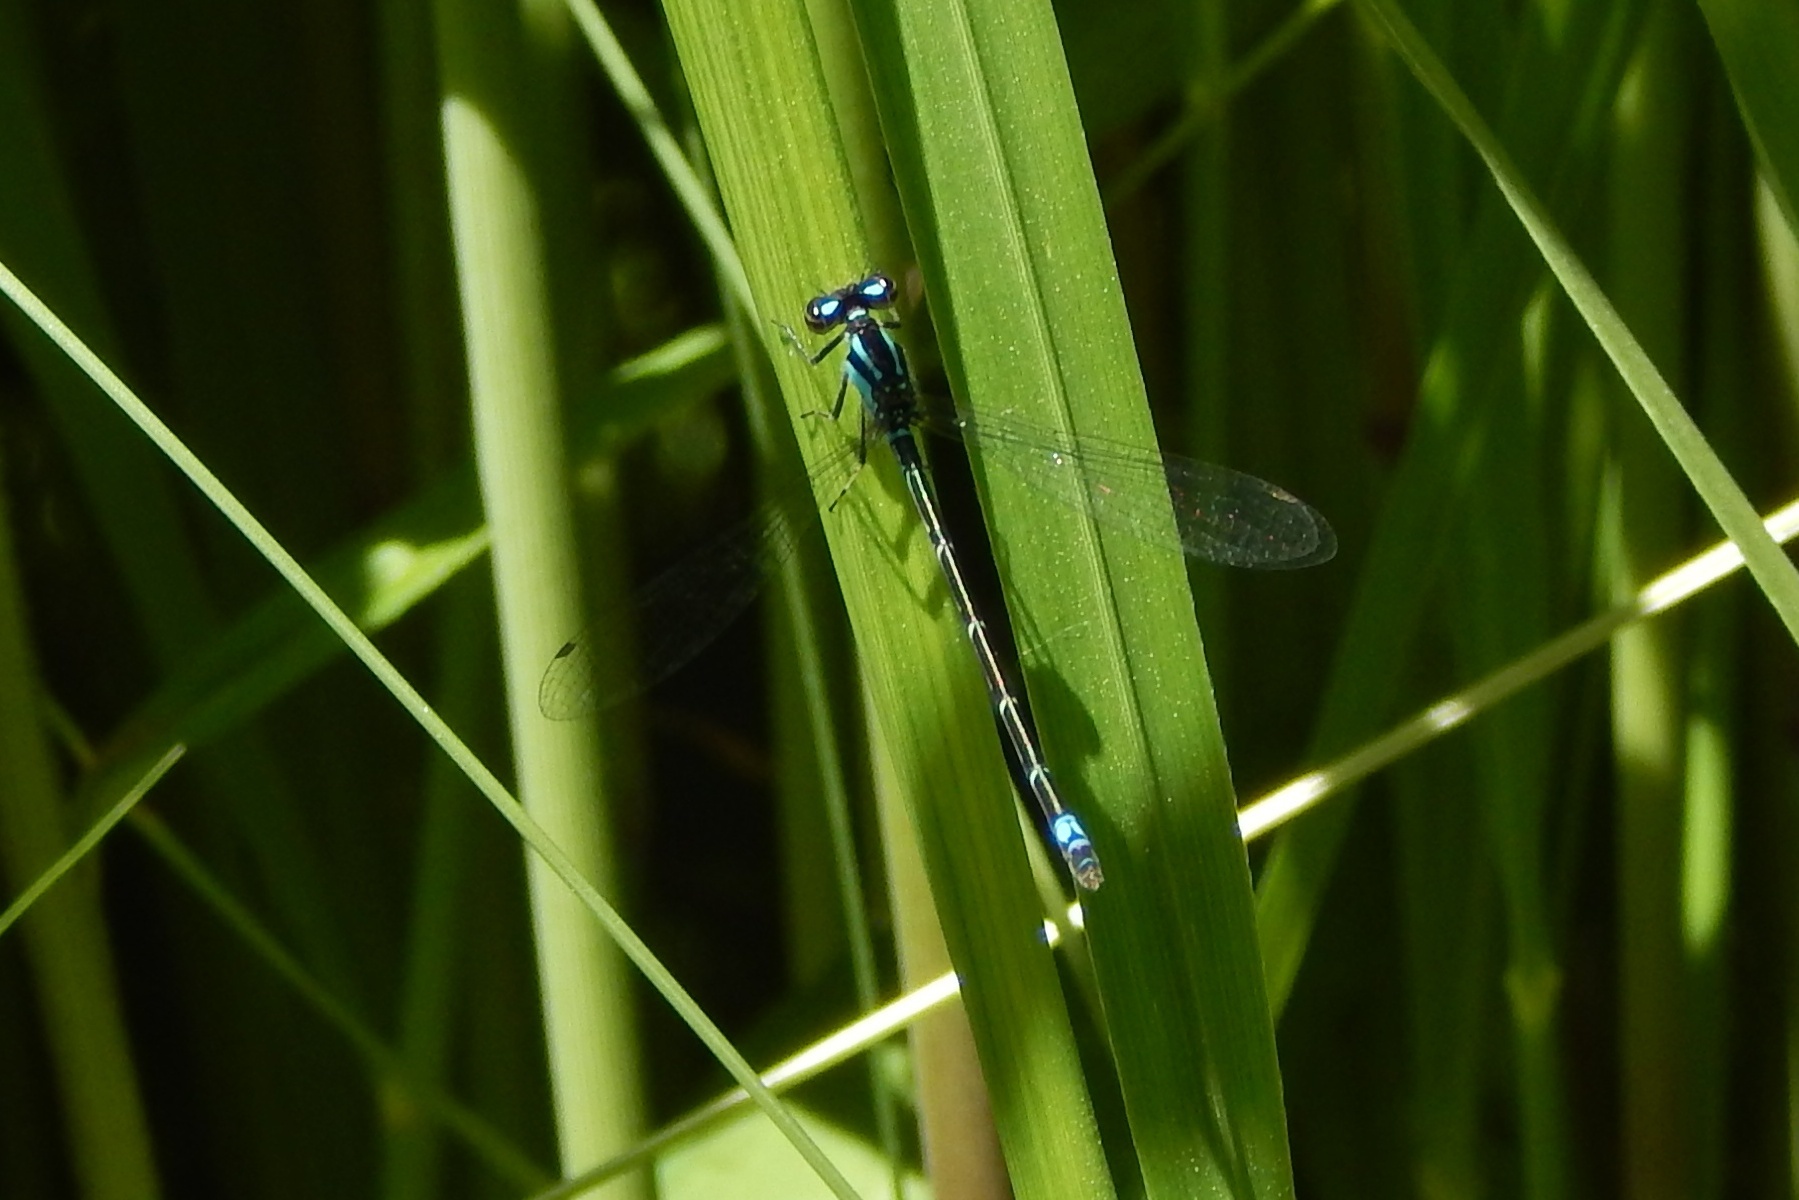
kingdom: Animalia
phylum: Arthropoda
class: Insecta
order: Odonata
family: Coenagrionidae
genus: Enallagma
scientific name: Enallagma geminatum
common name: Skimming bluet
